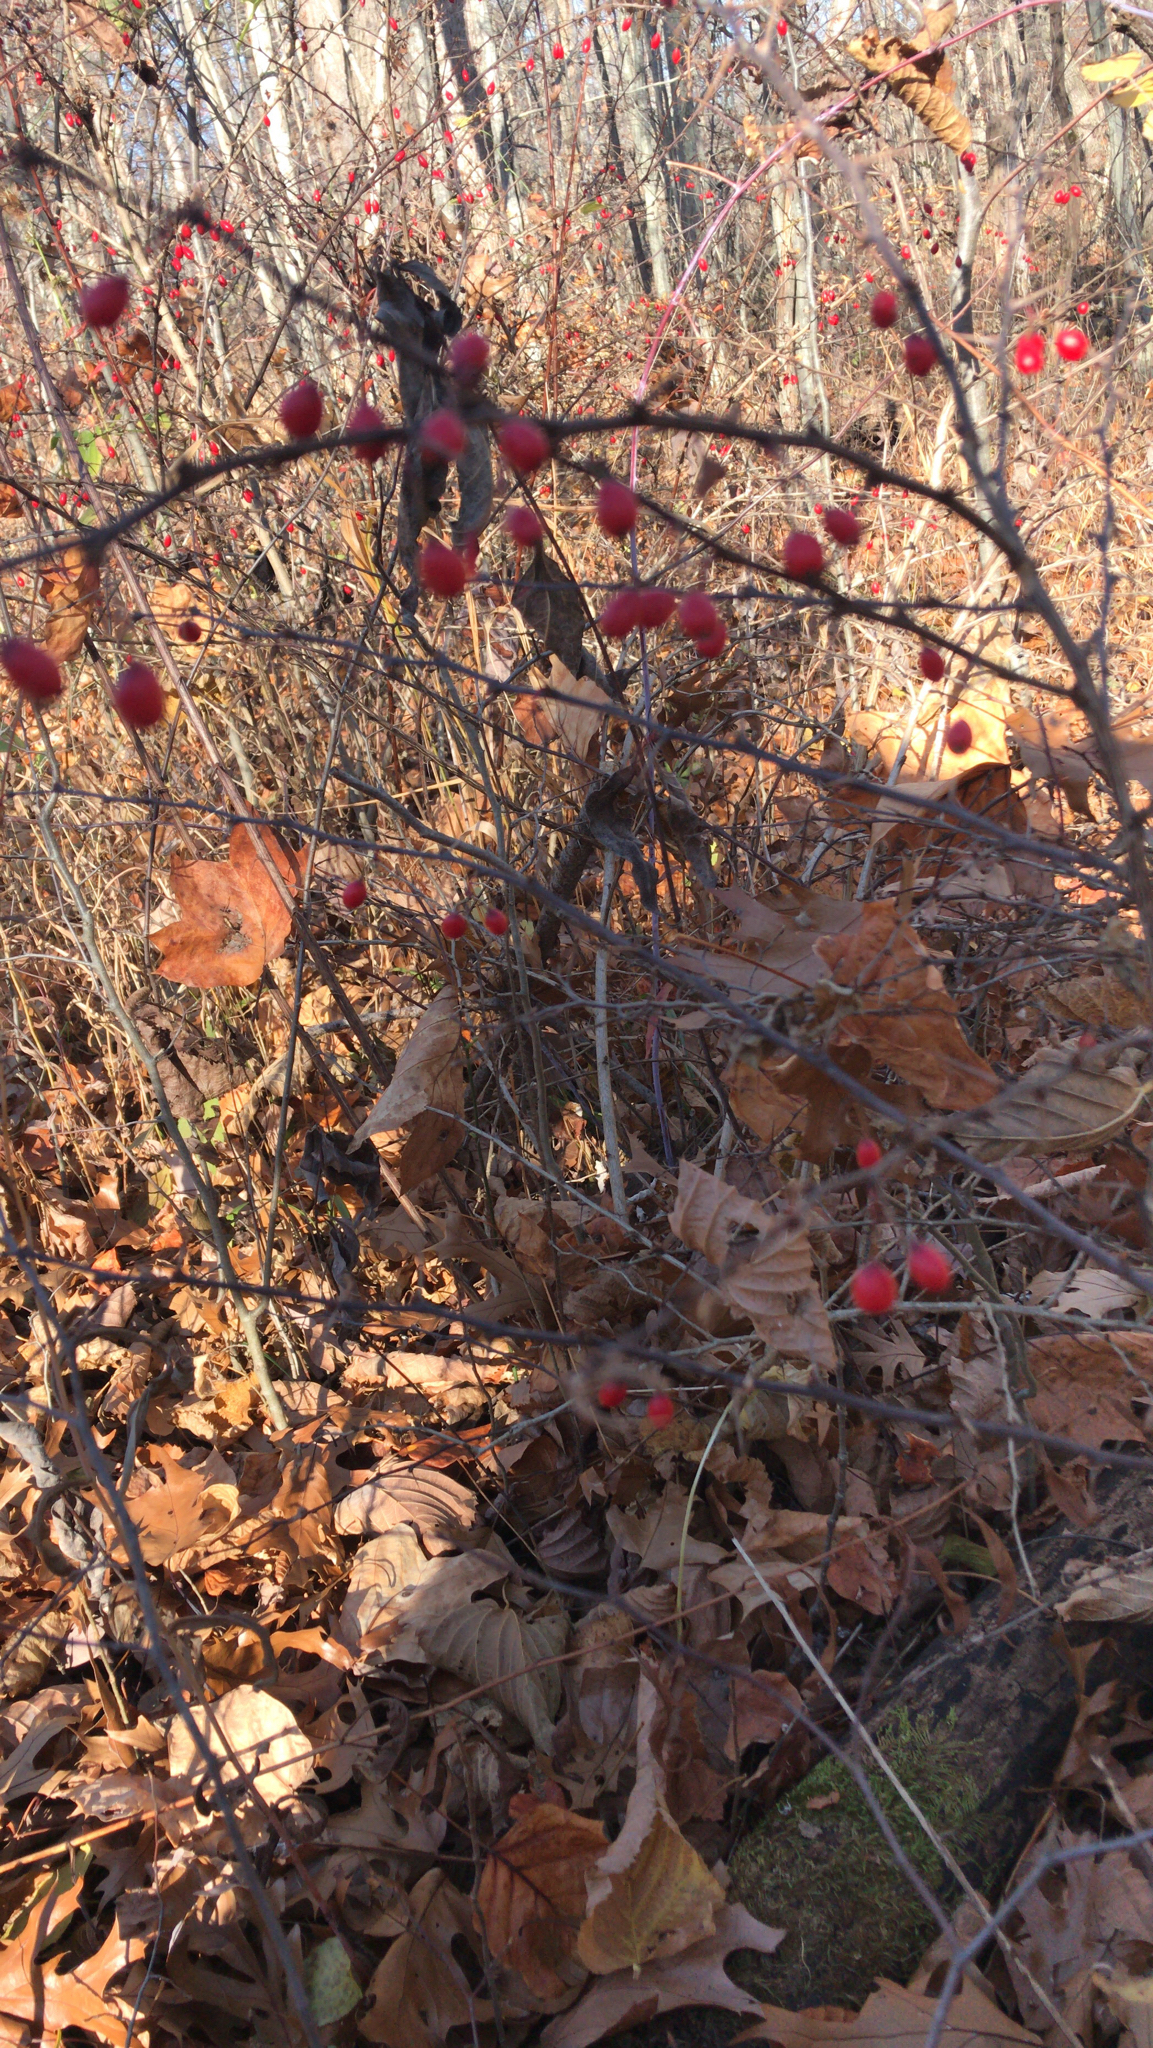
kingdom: Plantae
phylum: Tracheophyta
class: Magnoliopsida
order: Ranunculales
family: Berberidaceae
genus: Berberis
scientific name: Berberis thunbergii
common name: Japanese barberry
